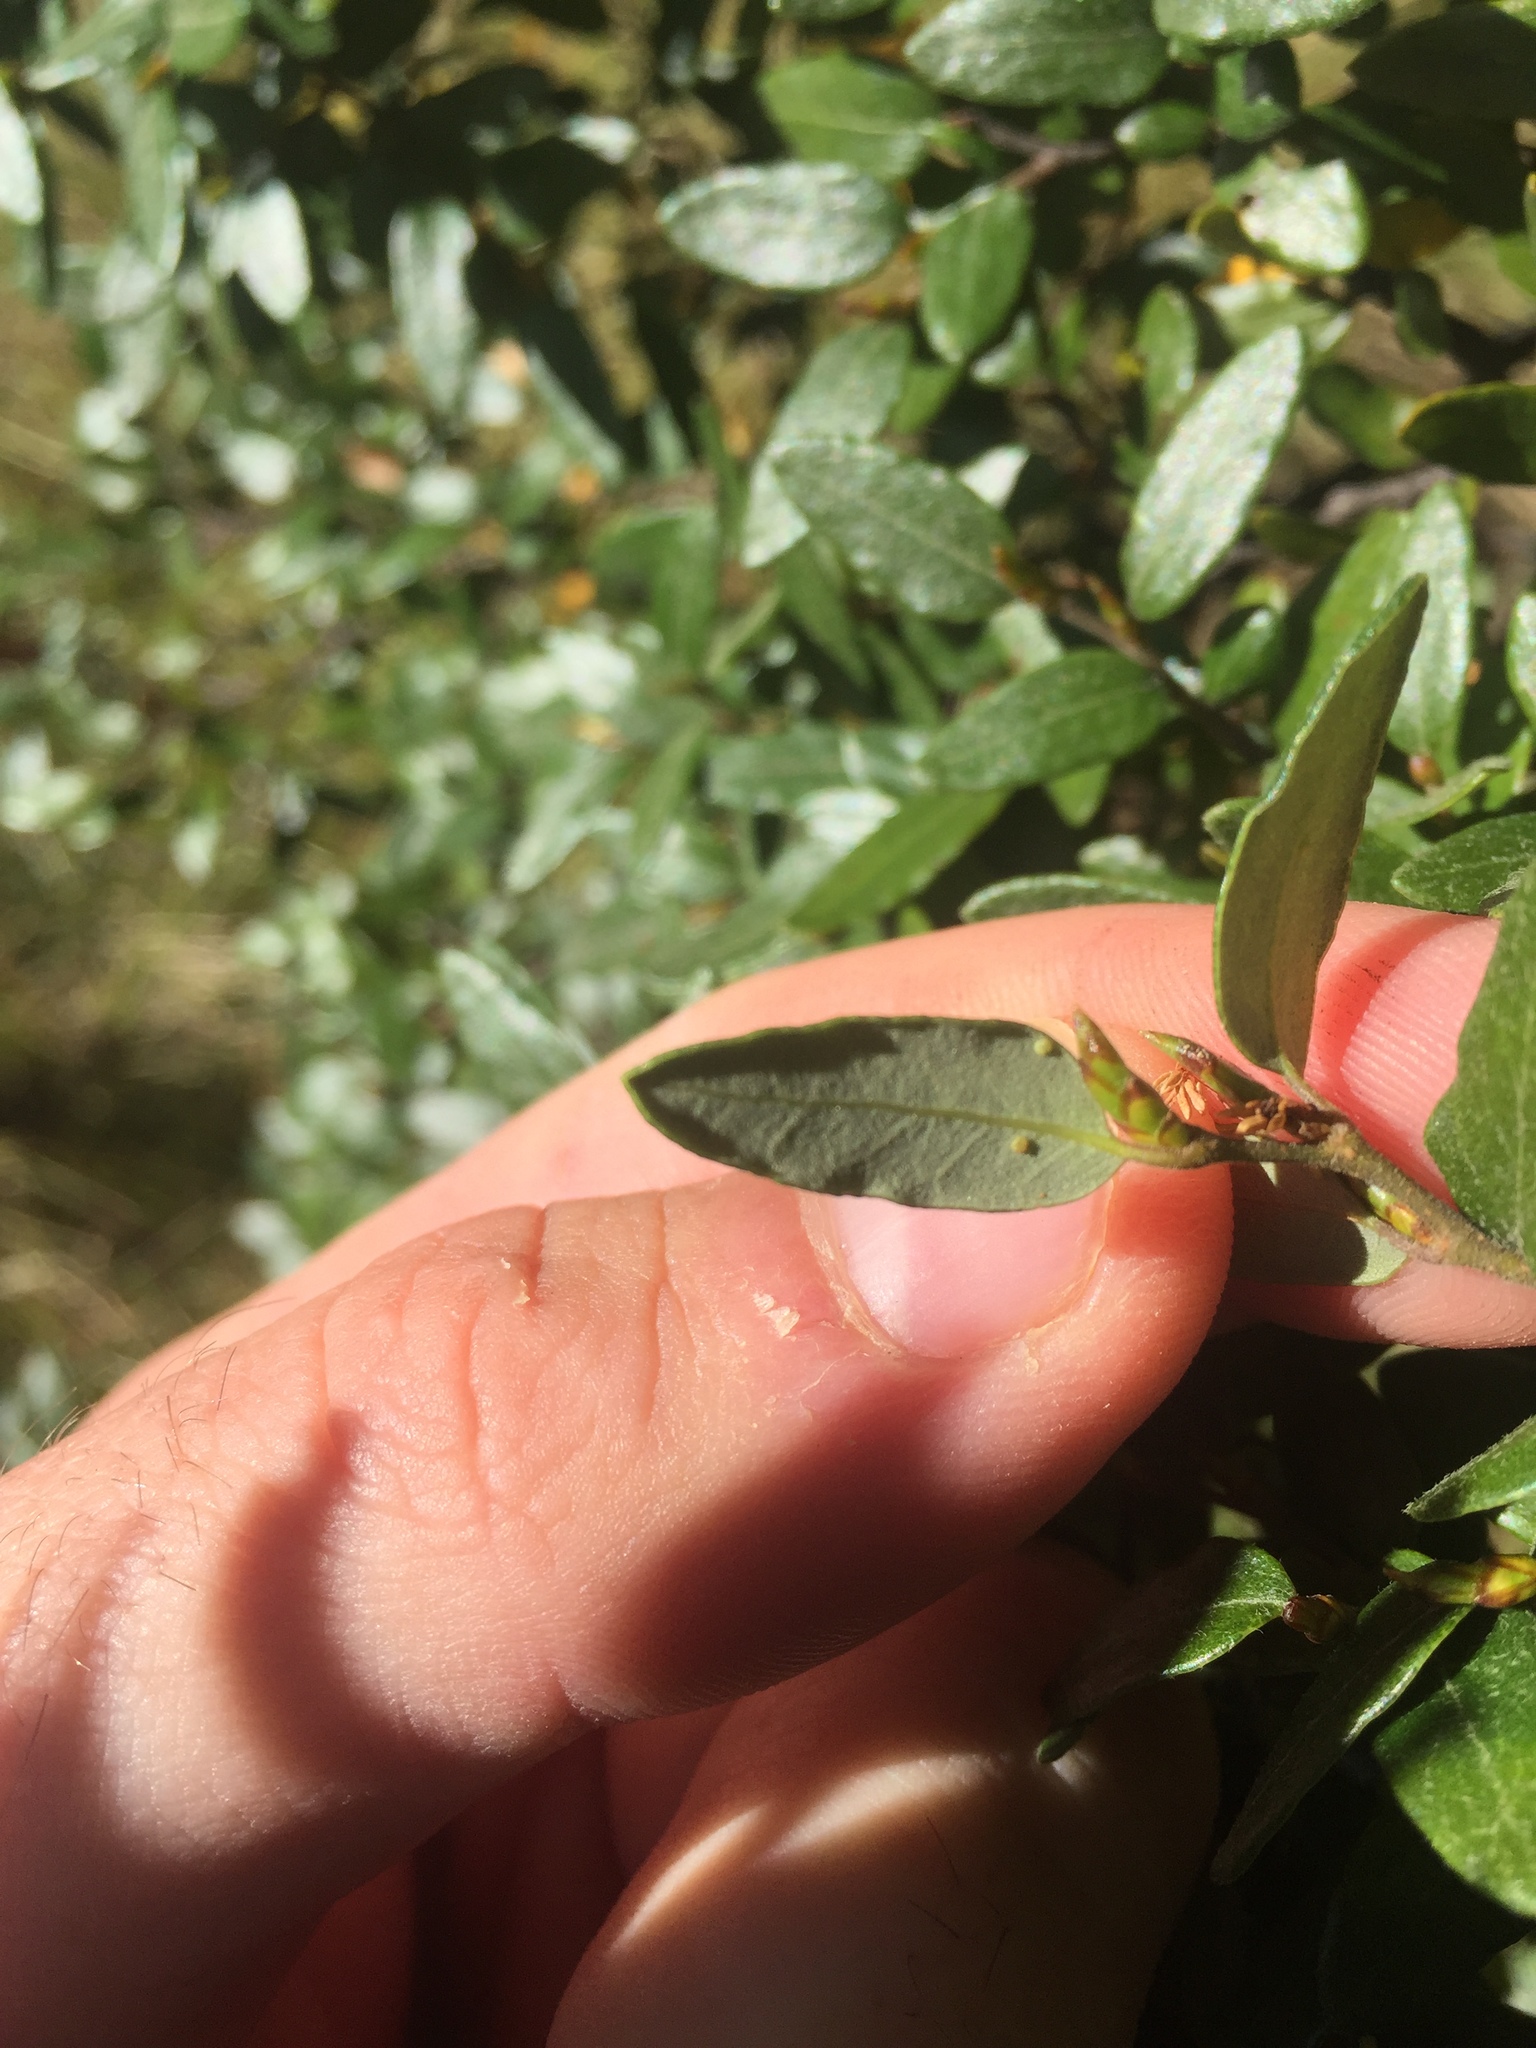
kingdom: Plantae
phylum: Tracheophyta
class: Magnoliopsida
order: Fagales
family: Nothofagaceae
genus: Nothofagus
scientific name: Nothofagus cliffortioides
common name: Mountain beech
